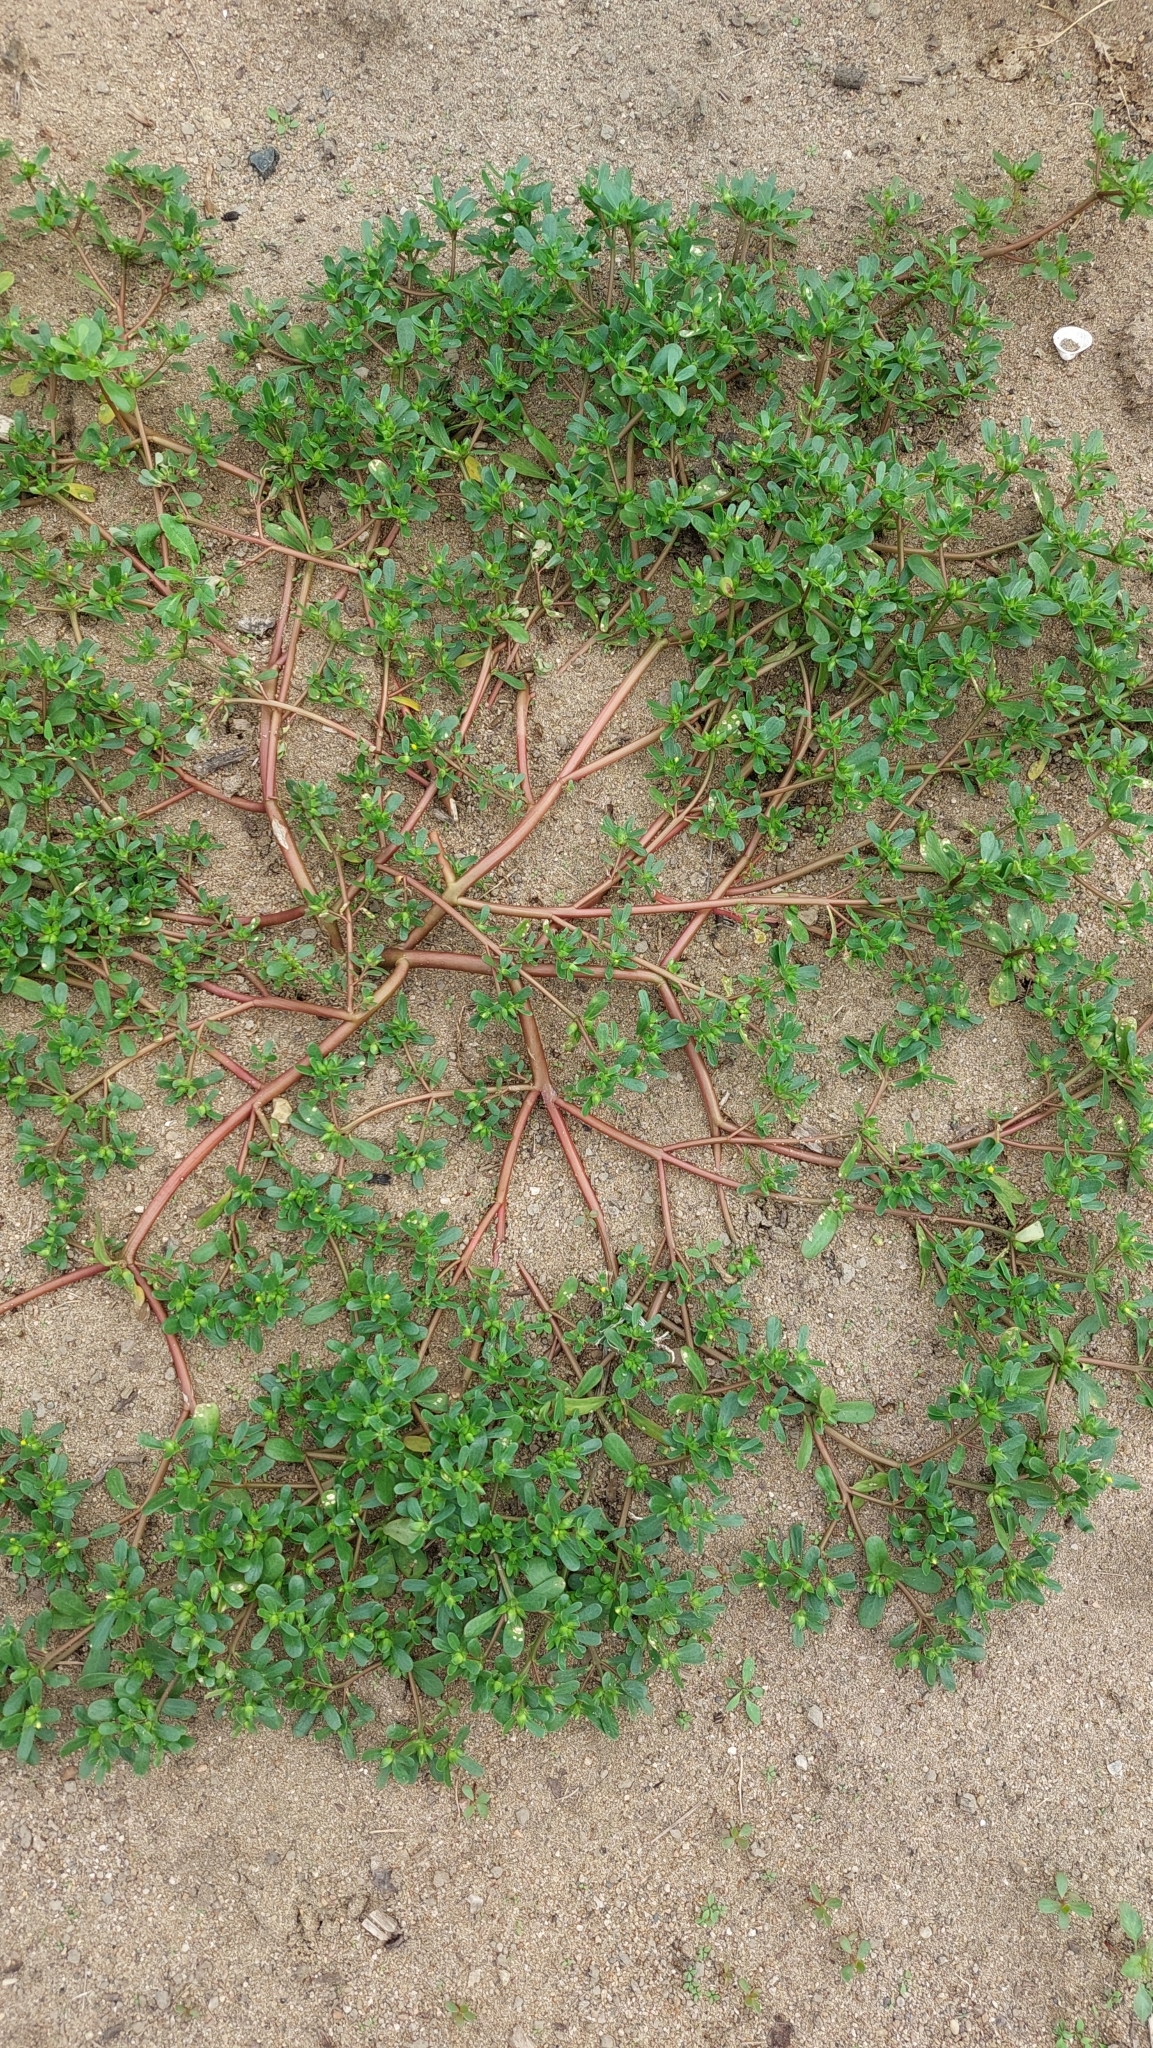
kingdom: Plantae
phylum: Tracheophyta
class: Magnoliopsida
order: Caryophyllales
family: Portulacaceae
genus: Portulaca
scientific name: Portulaca oleracea
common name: Common purslane
